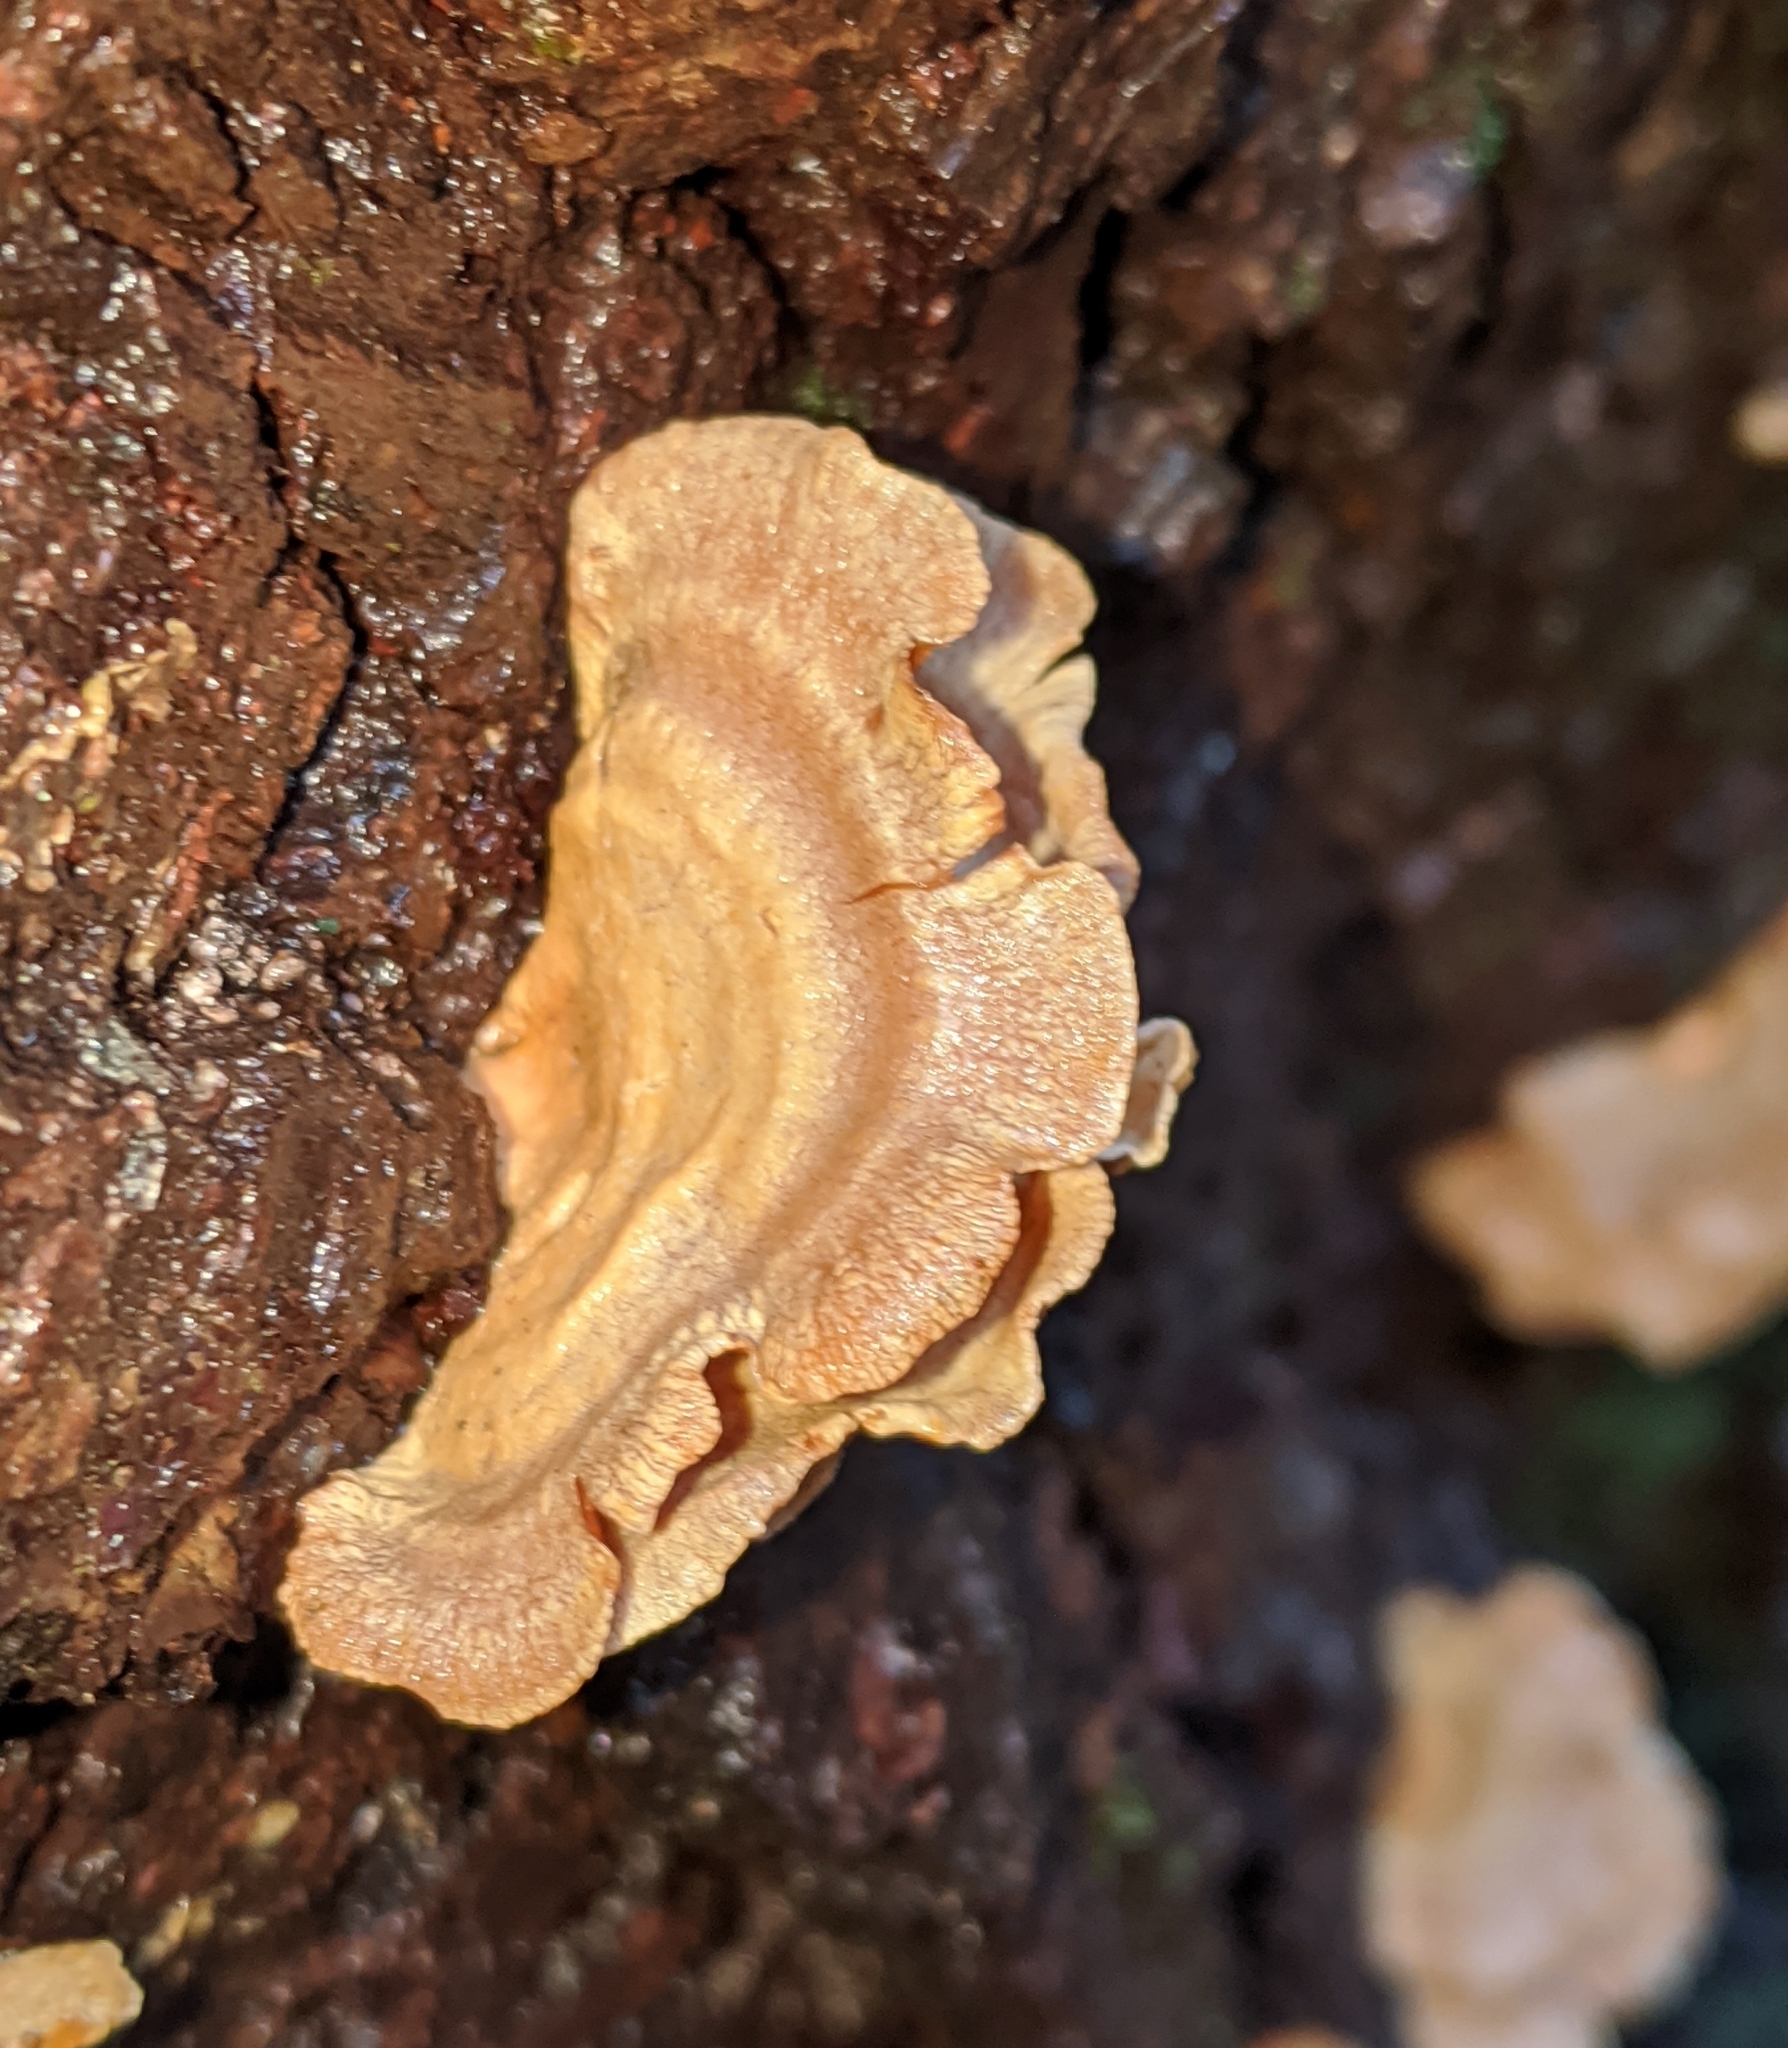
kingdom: Fungi
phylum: Basidiomycota
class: Agaricomycetes
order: Agaricales
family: Mycenaceae
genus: Panellus
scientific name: Panellus stipticus
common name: Bitter oysterling
